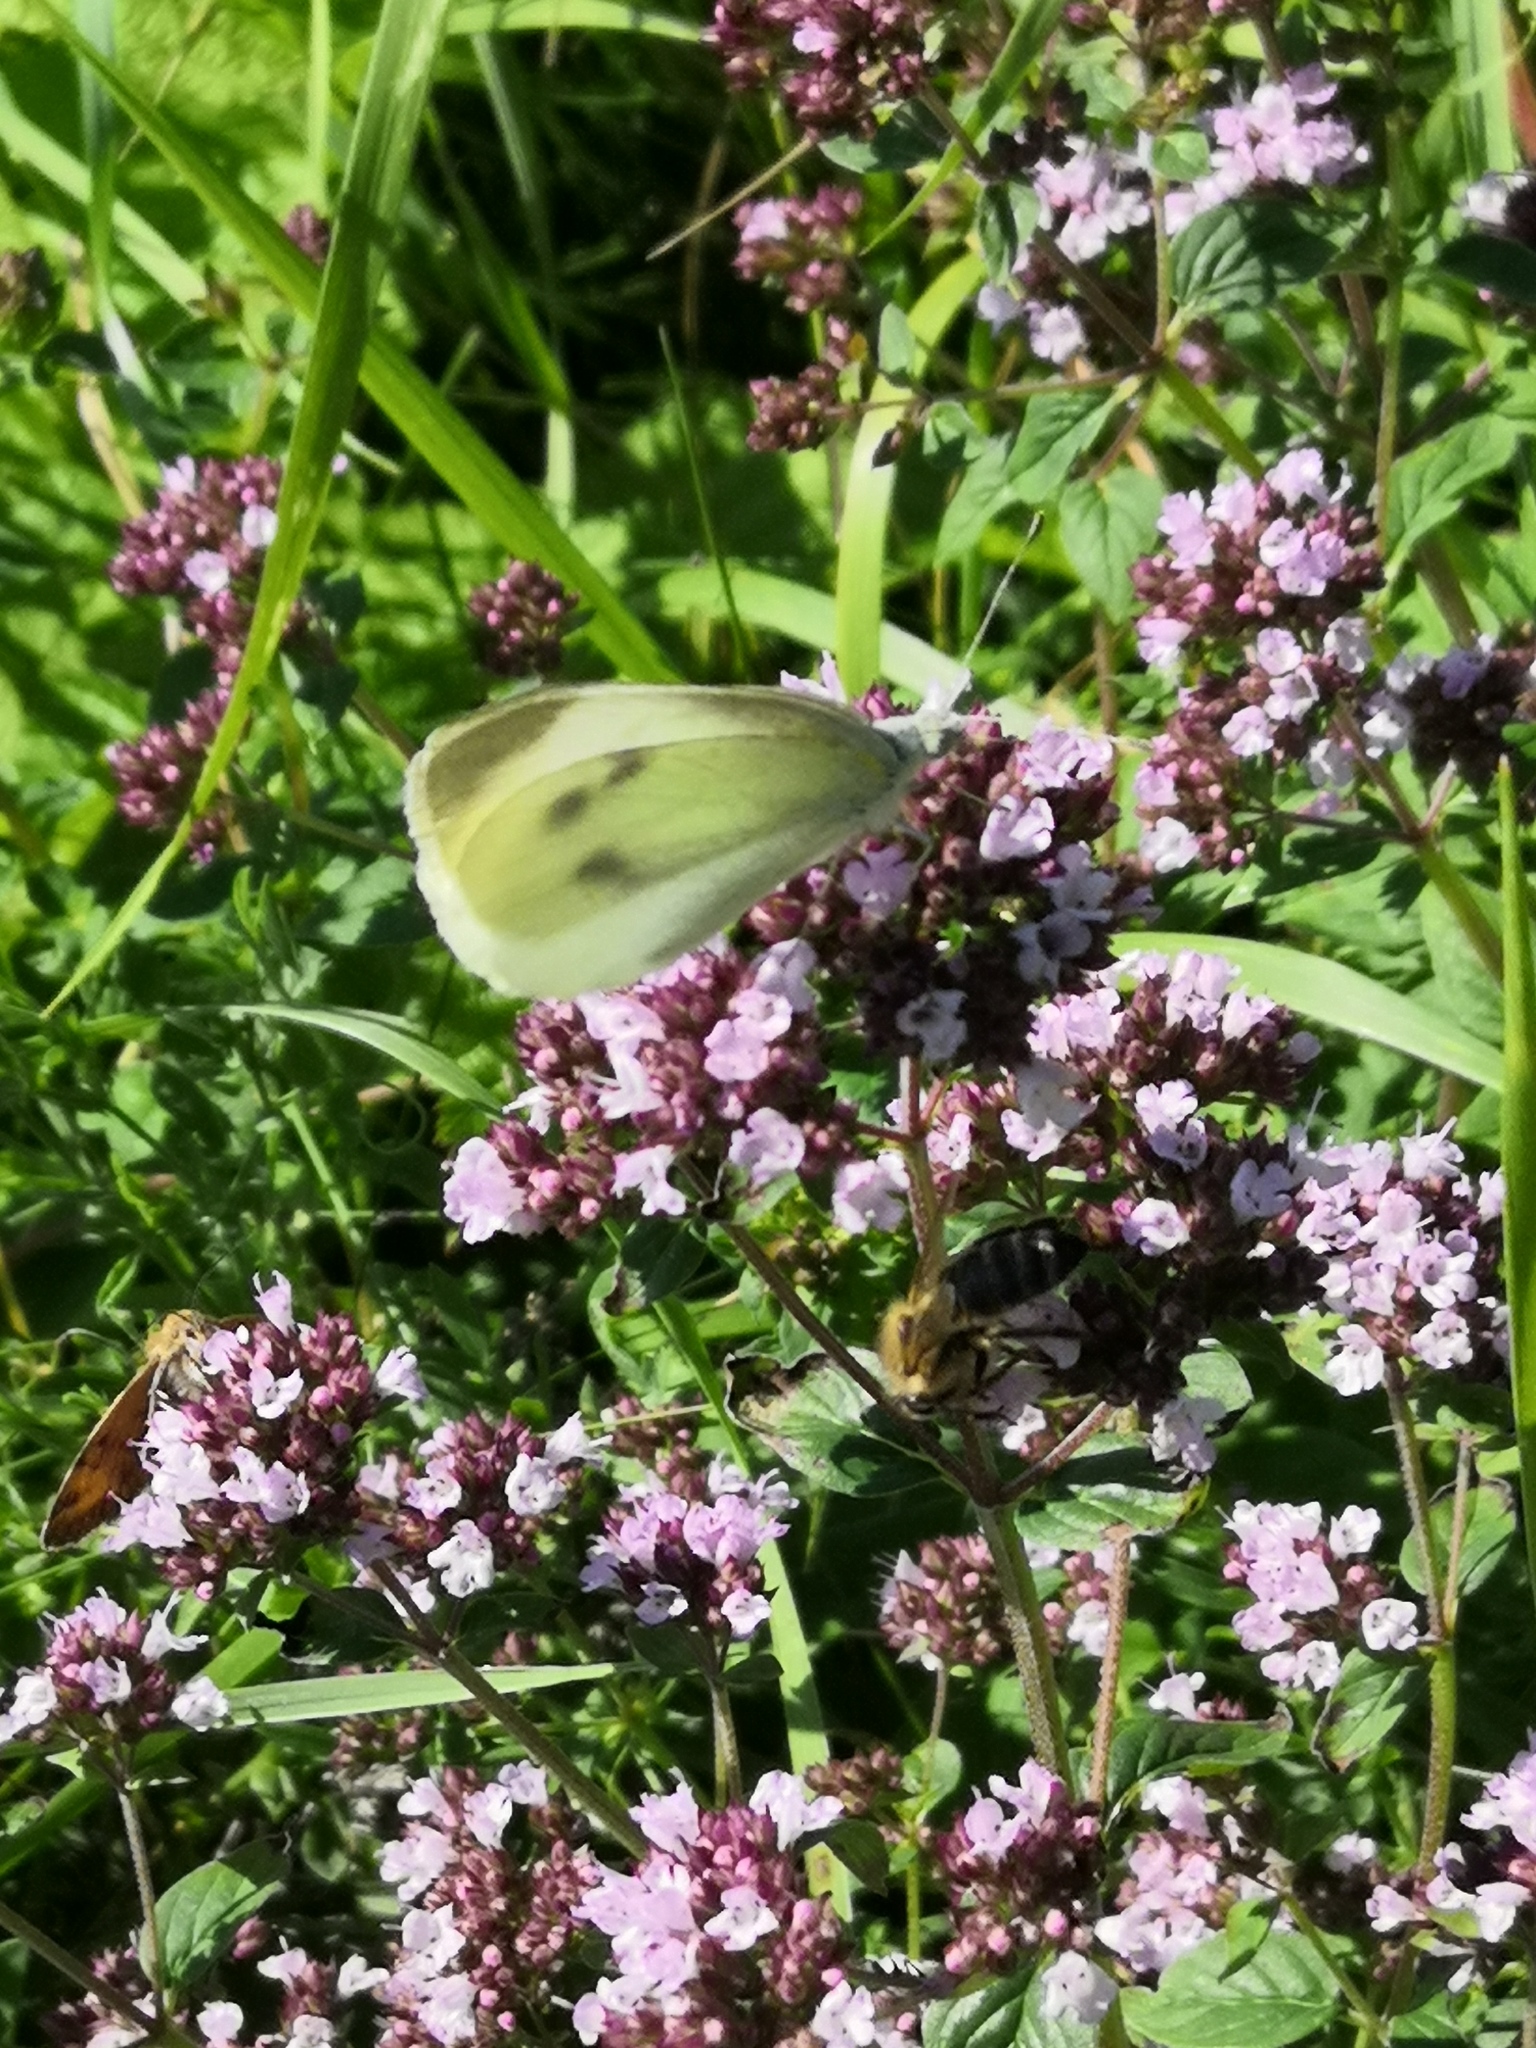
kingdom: Animalia
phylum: Arthropoda
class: Insecta
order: Lepidoptera
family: Pieridae
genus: Pieris
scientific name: Pieris rapae
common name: Small white
